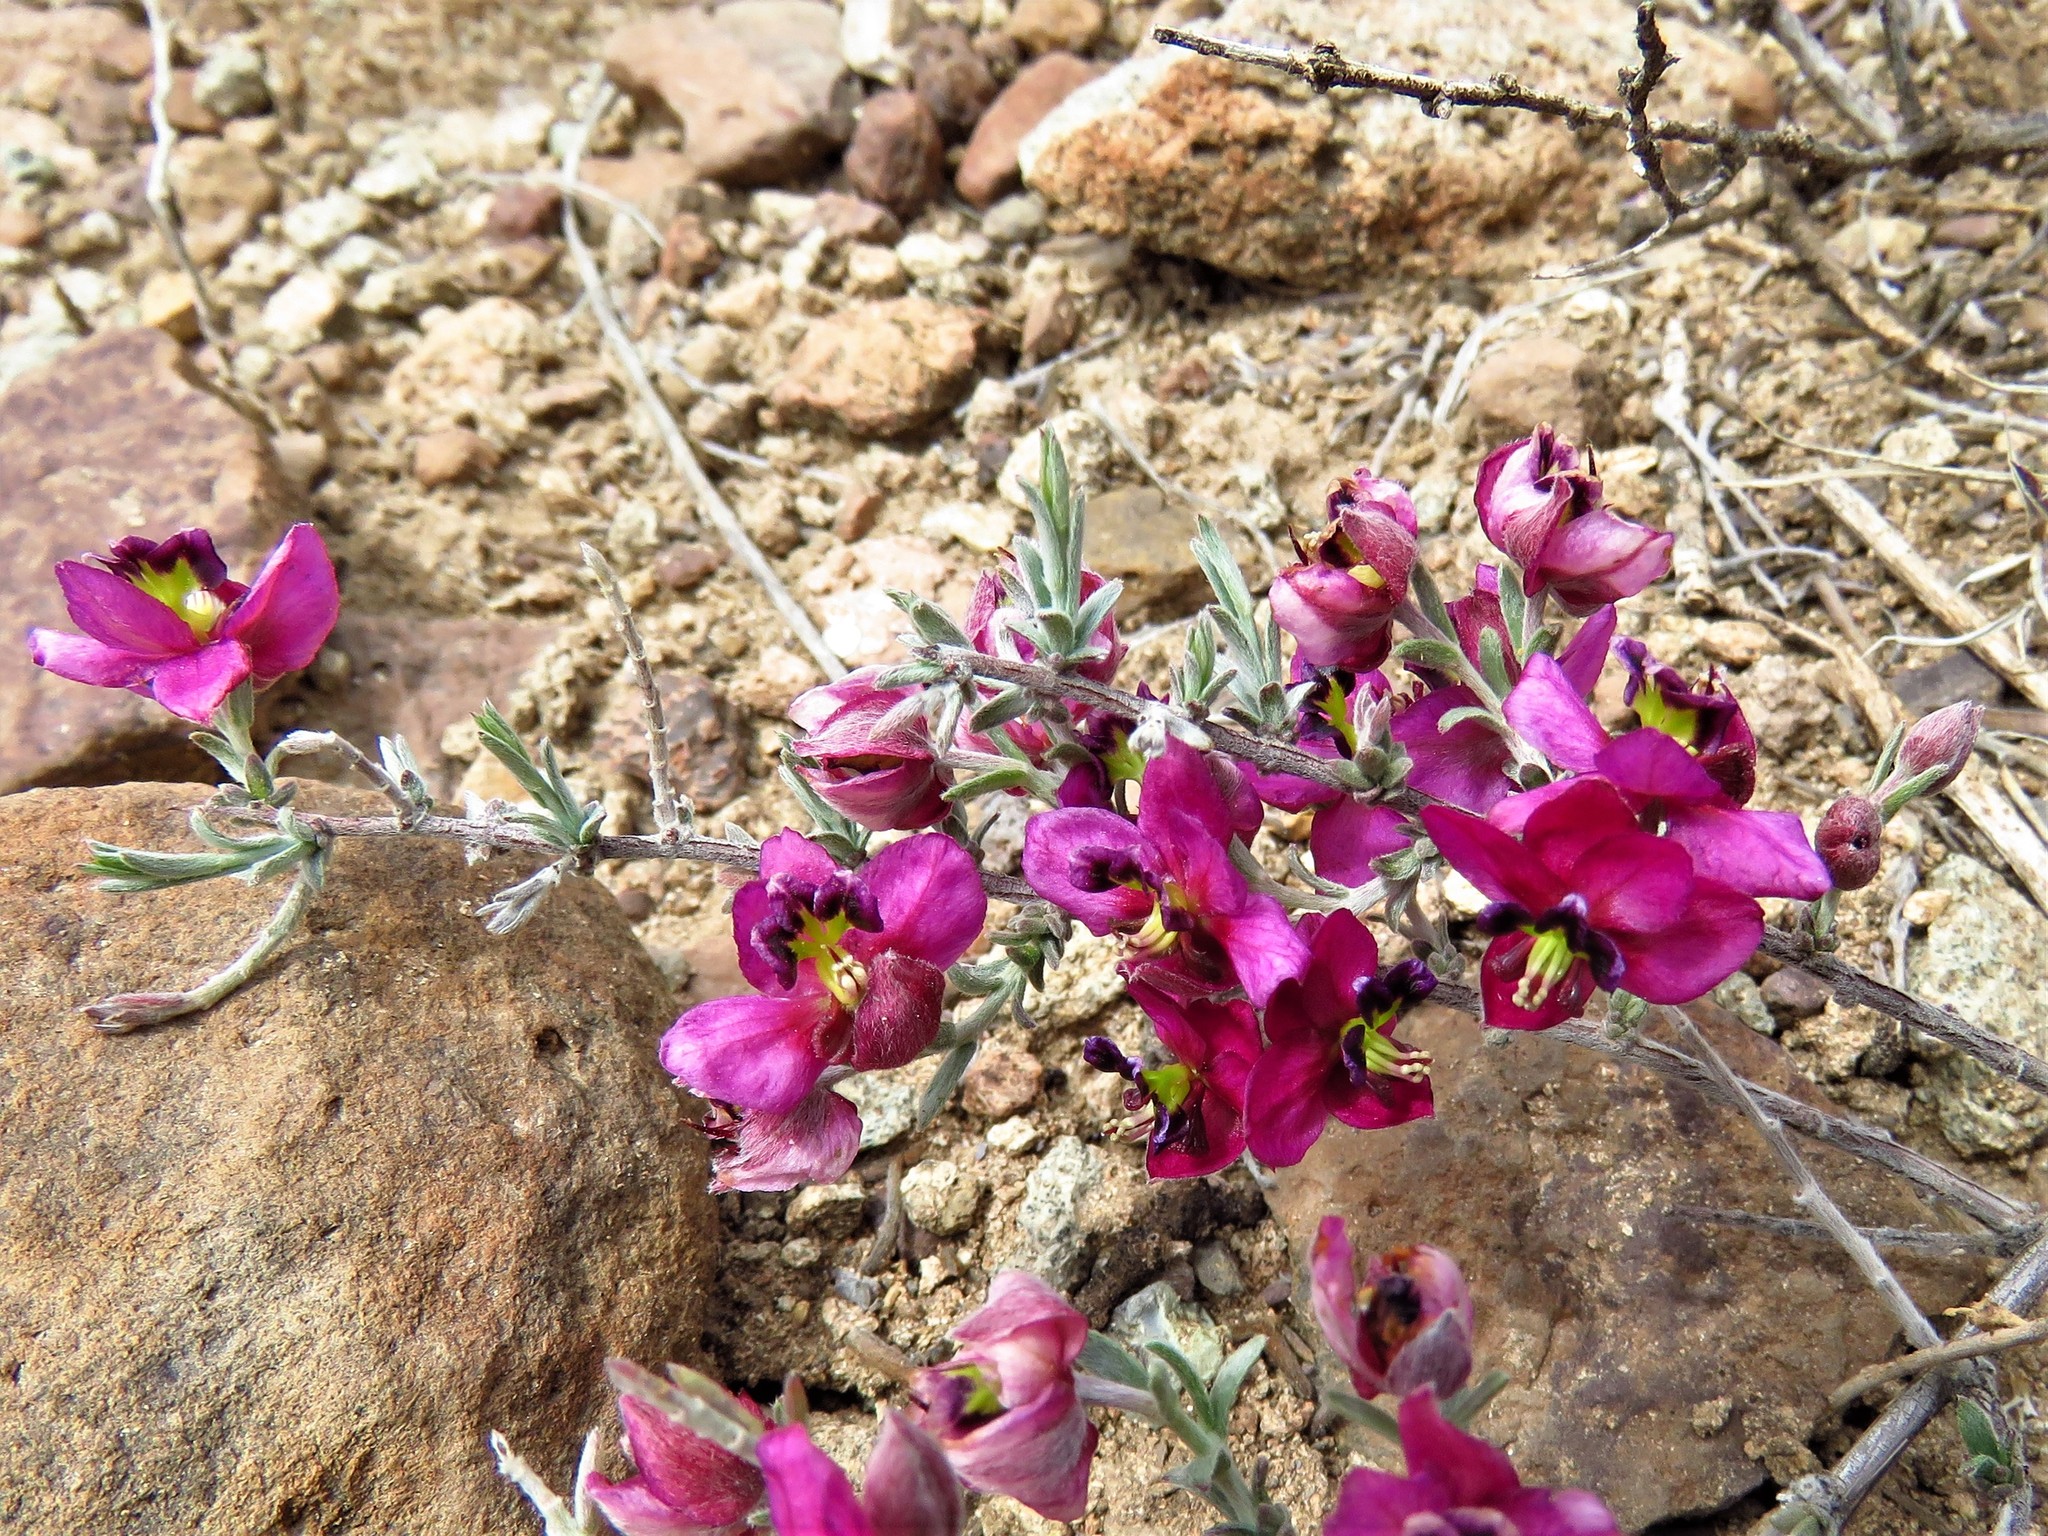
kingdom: Plantae
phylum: Tracheophyta
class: Magnoliopsida
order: Zygophyllales
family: Krameriaceae
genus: Krameria
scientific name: Krameria erecta
